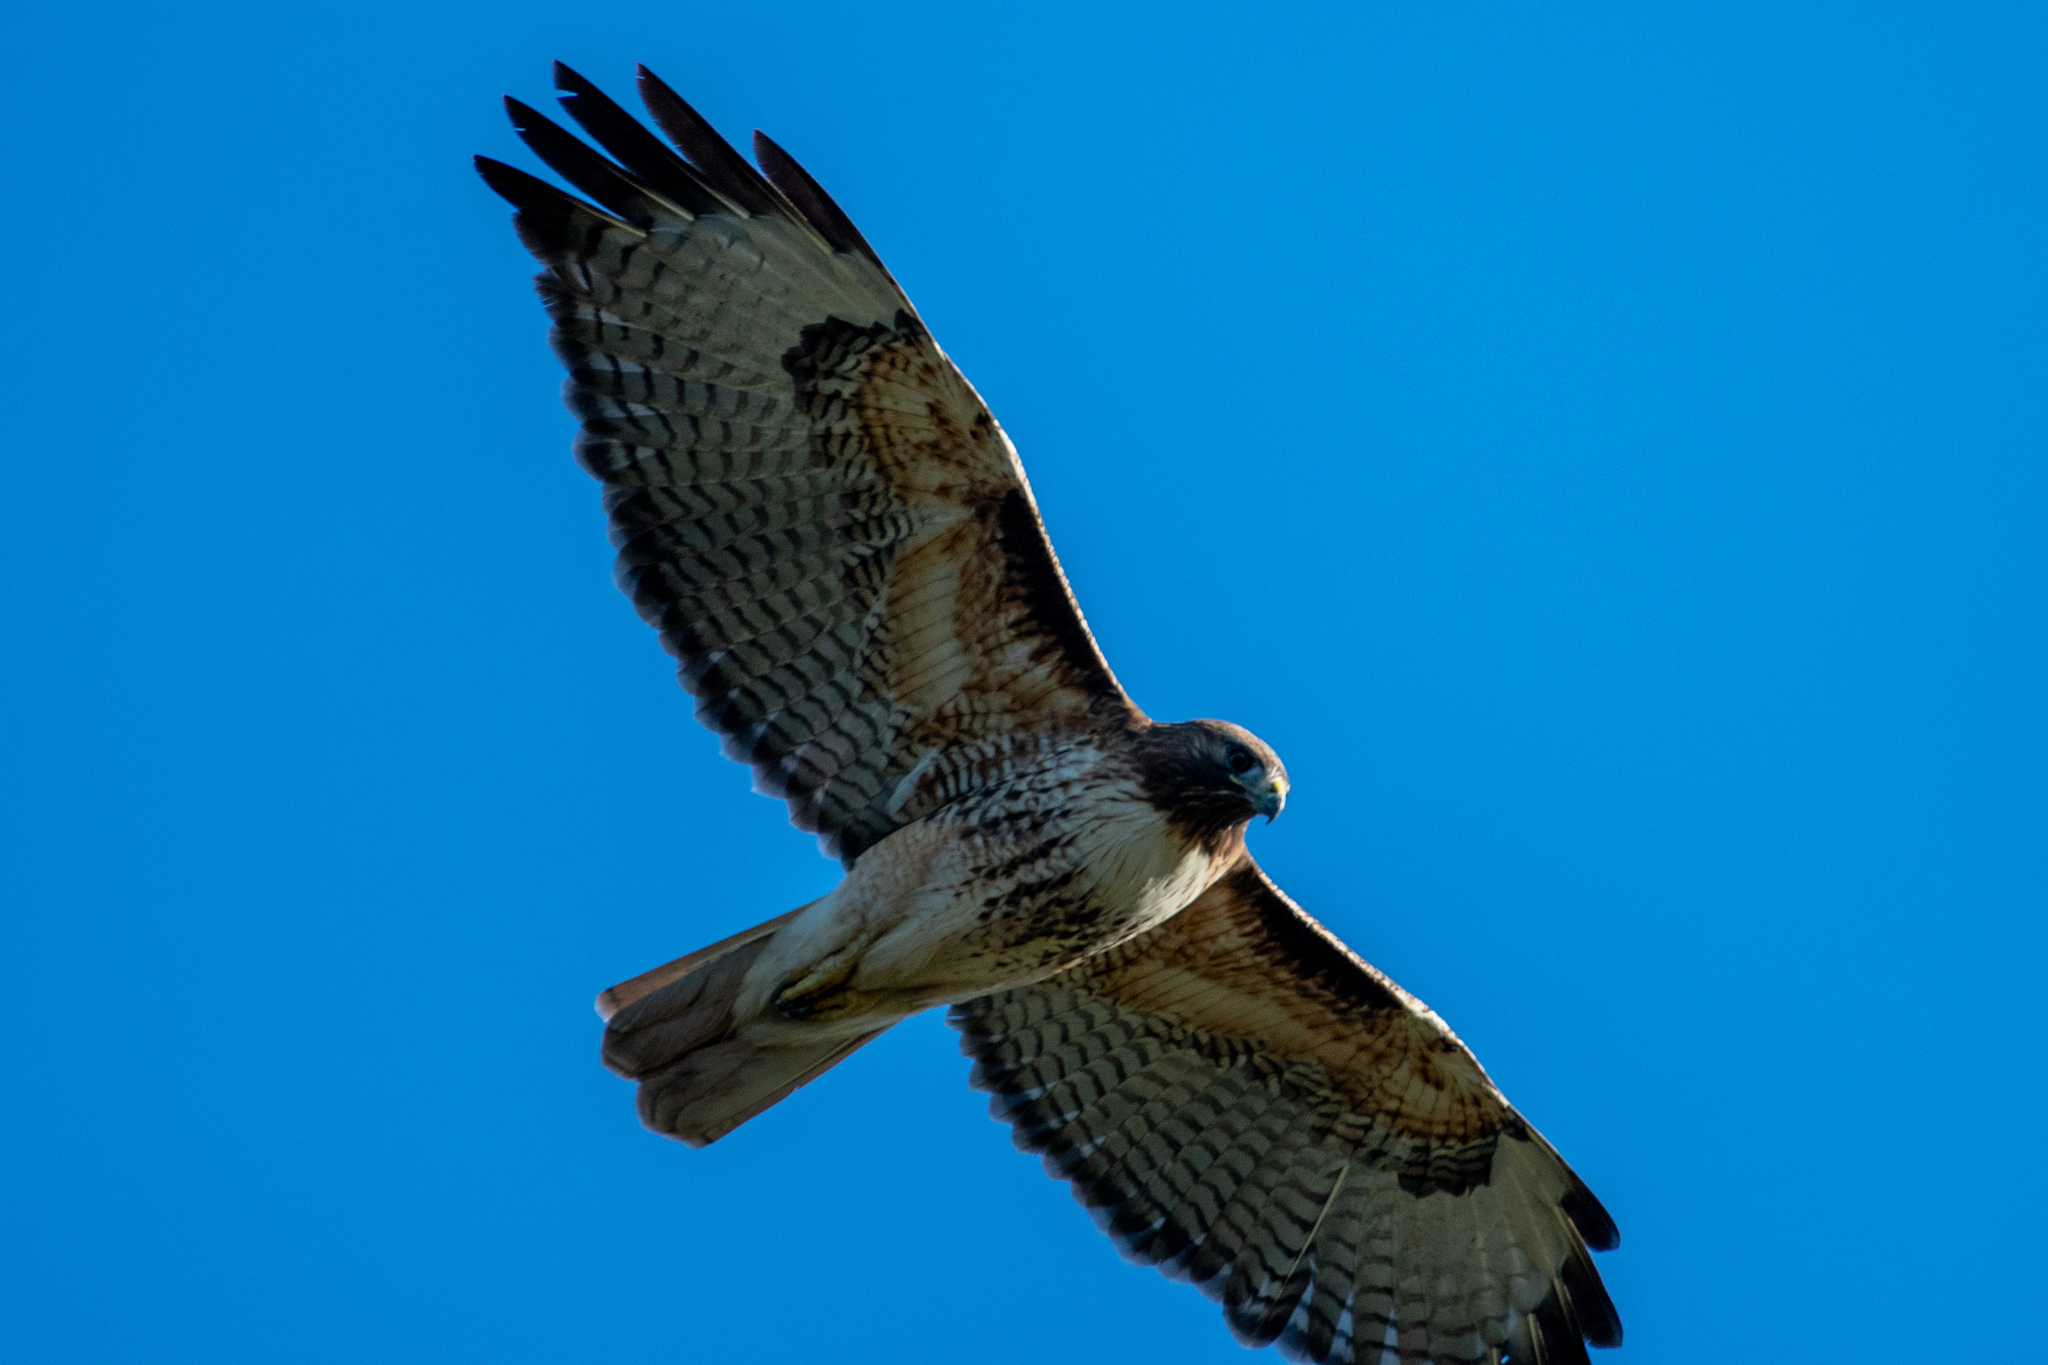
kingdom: Animalia
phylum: Chordata
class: Aves
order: Accipitriformes
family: Accipitridae
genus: Buteo
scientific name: Buteo jamaicensis
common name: Red-tailed hawk
